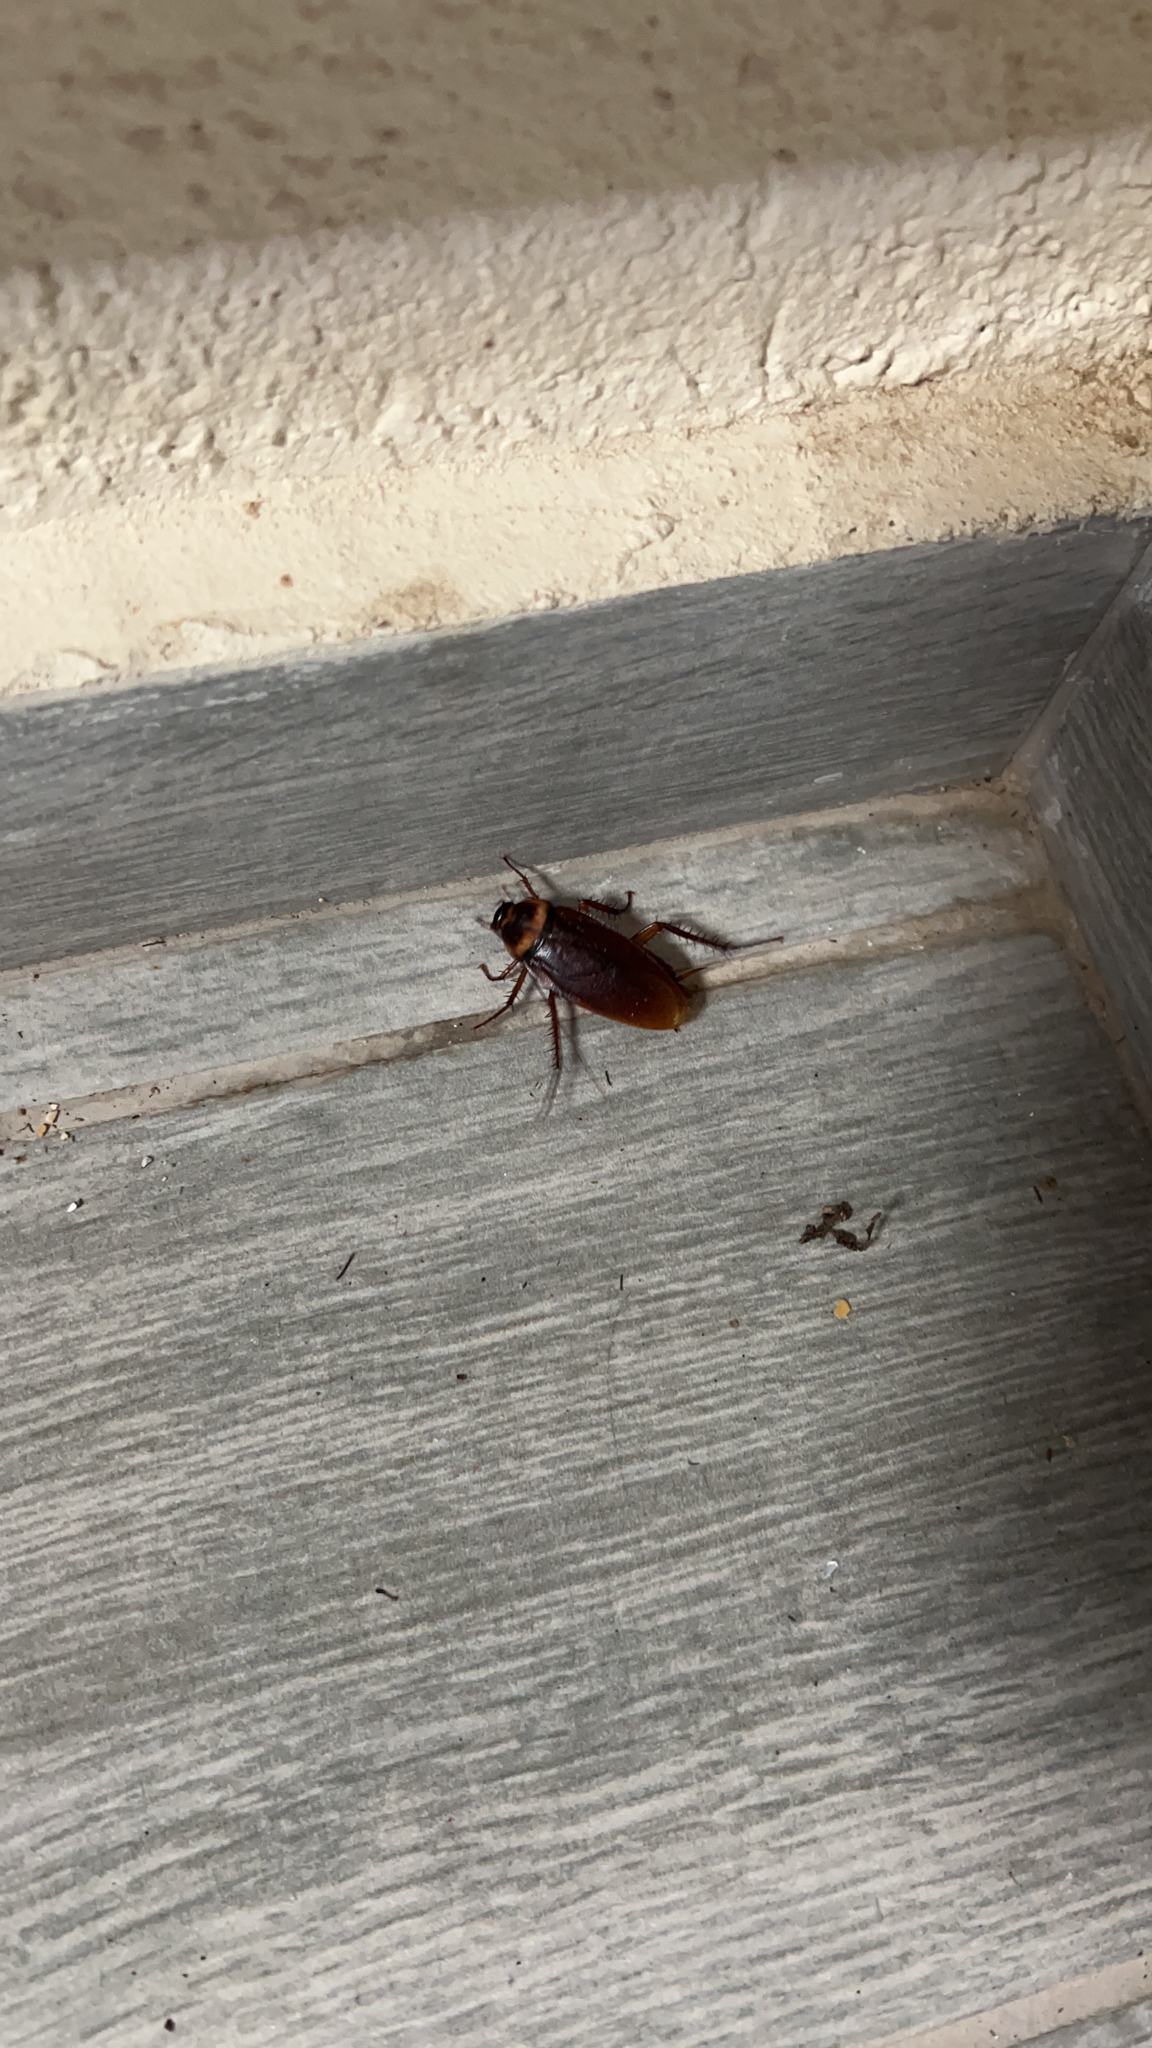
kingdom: Animalia
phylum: Arthropoda
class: Insecta
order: Blattodea
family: Blattidae
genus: Periplaneta
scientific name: Periplaneta americana
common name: American cockroach
